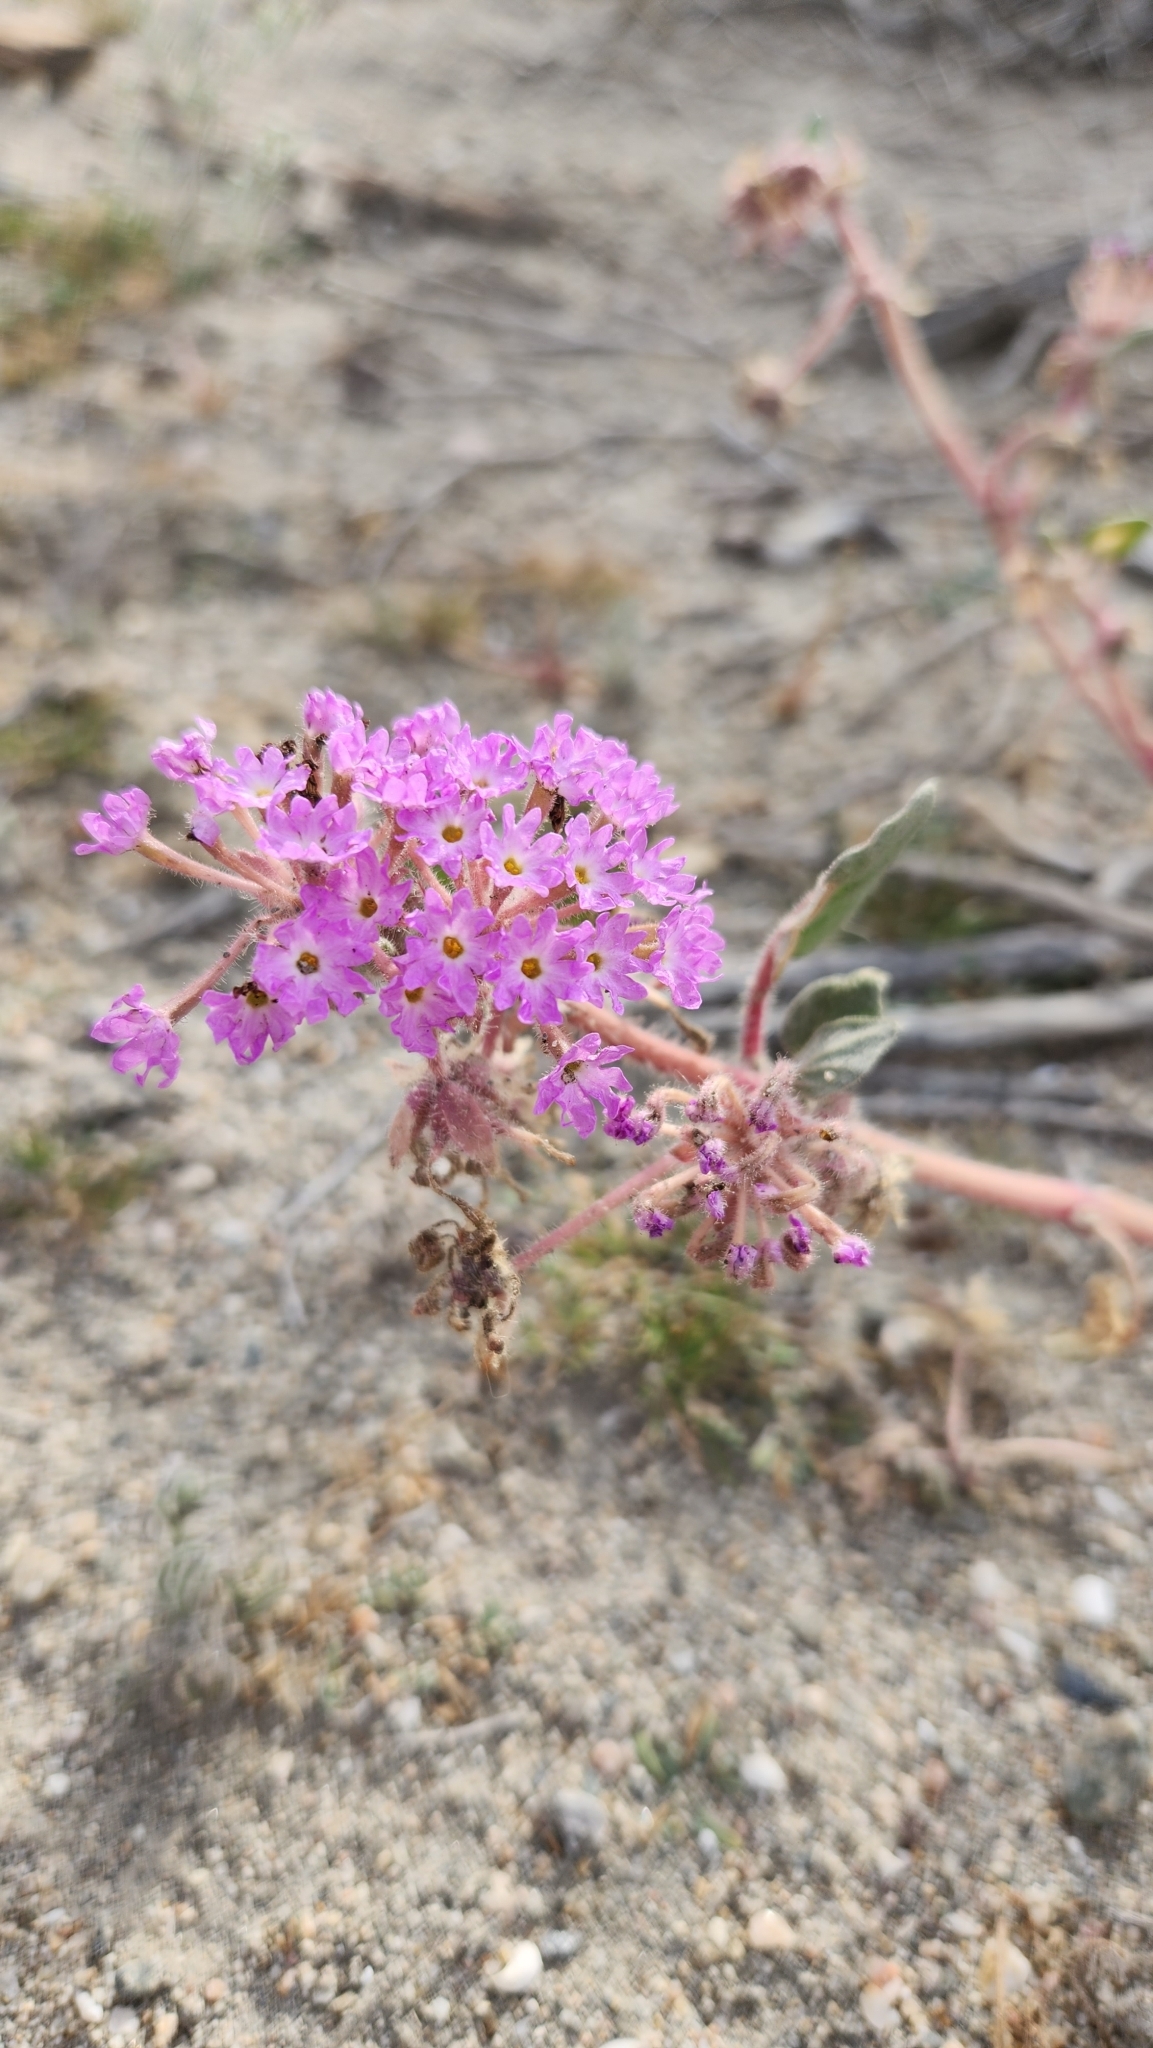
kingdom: Plantae
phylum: Tracheophyta
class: Magnoliopsida
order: Caryophyllales
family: Nyctaginaceae
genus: Abronia
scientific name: Abronia villosa
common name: Desert sand-verbena
